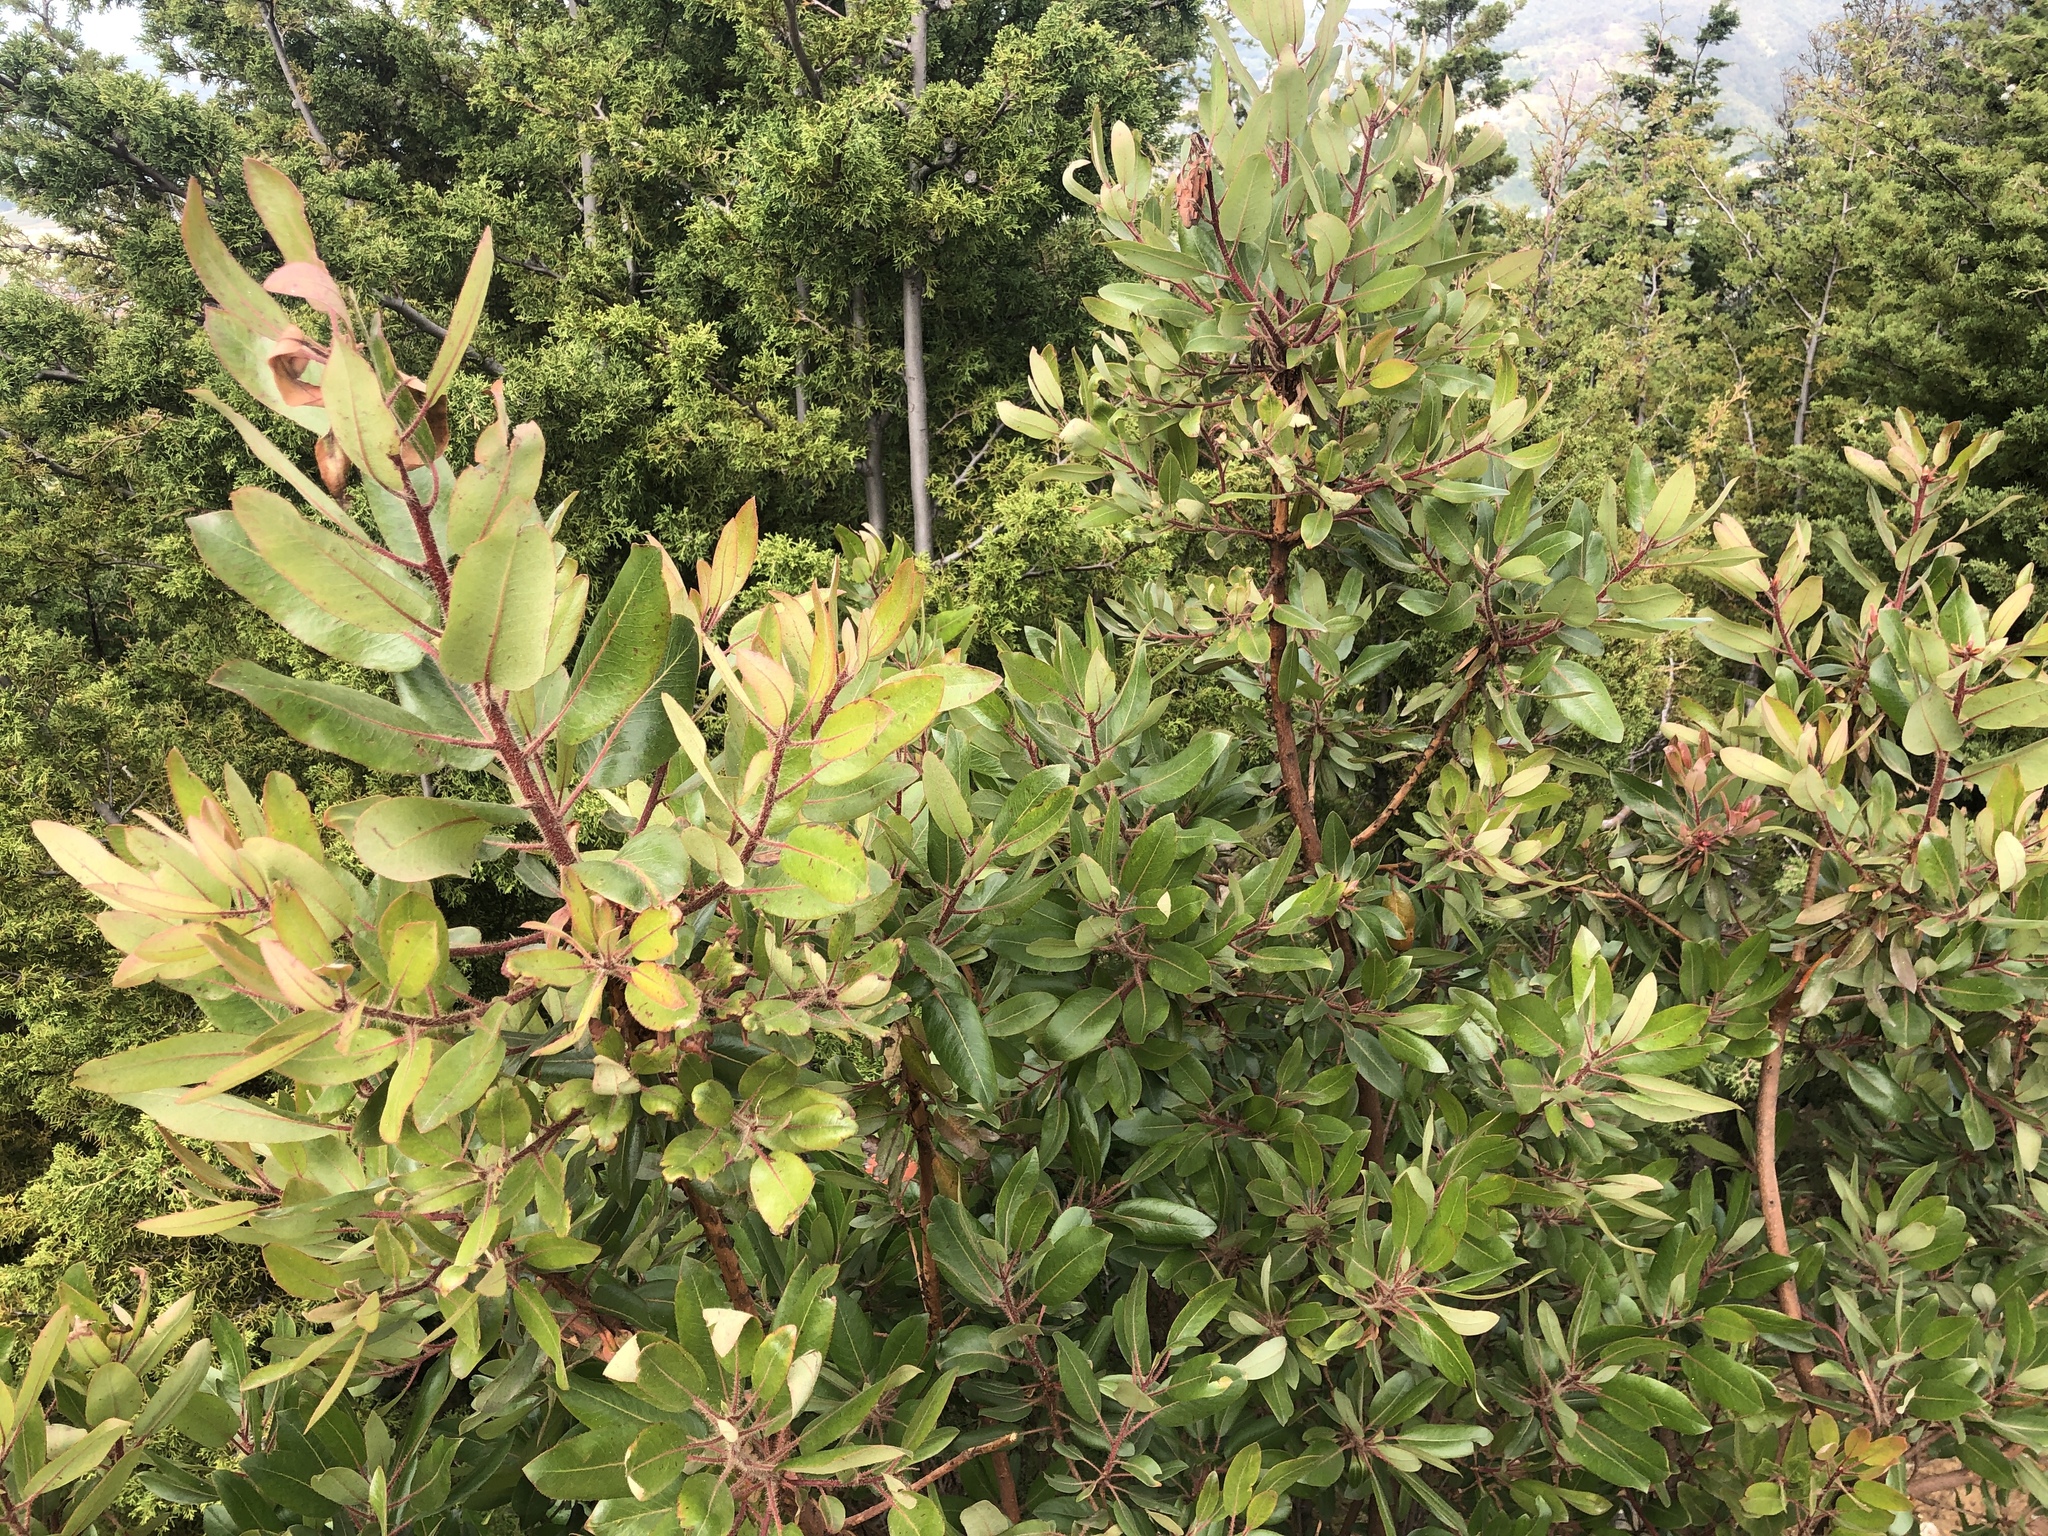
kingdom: Plantae
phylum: Tracheophyta
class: Magnoliopsida
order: Ericales
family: Ericaceae
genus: Arbutus
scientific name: Arbutus tessellata
